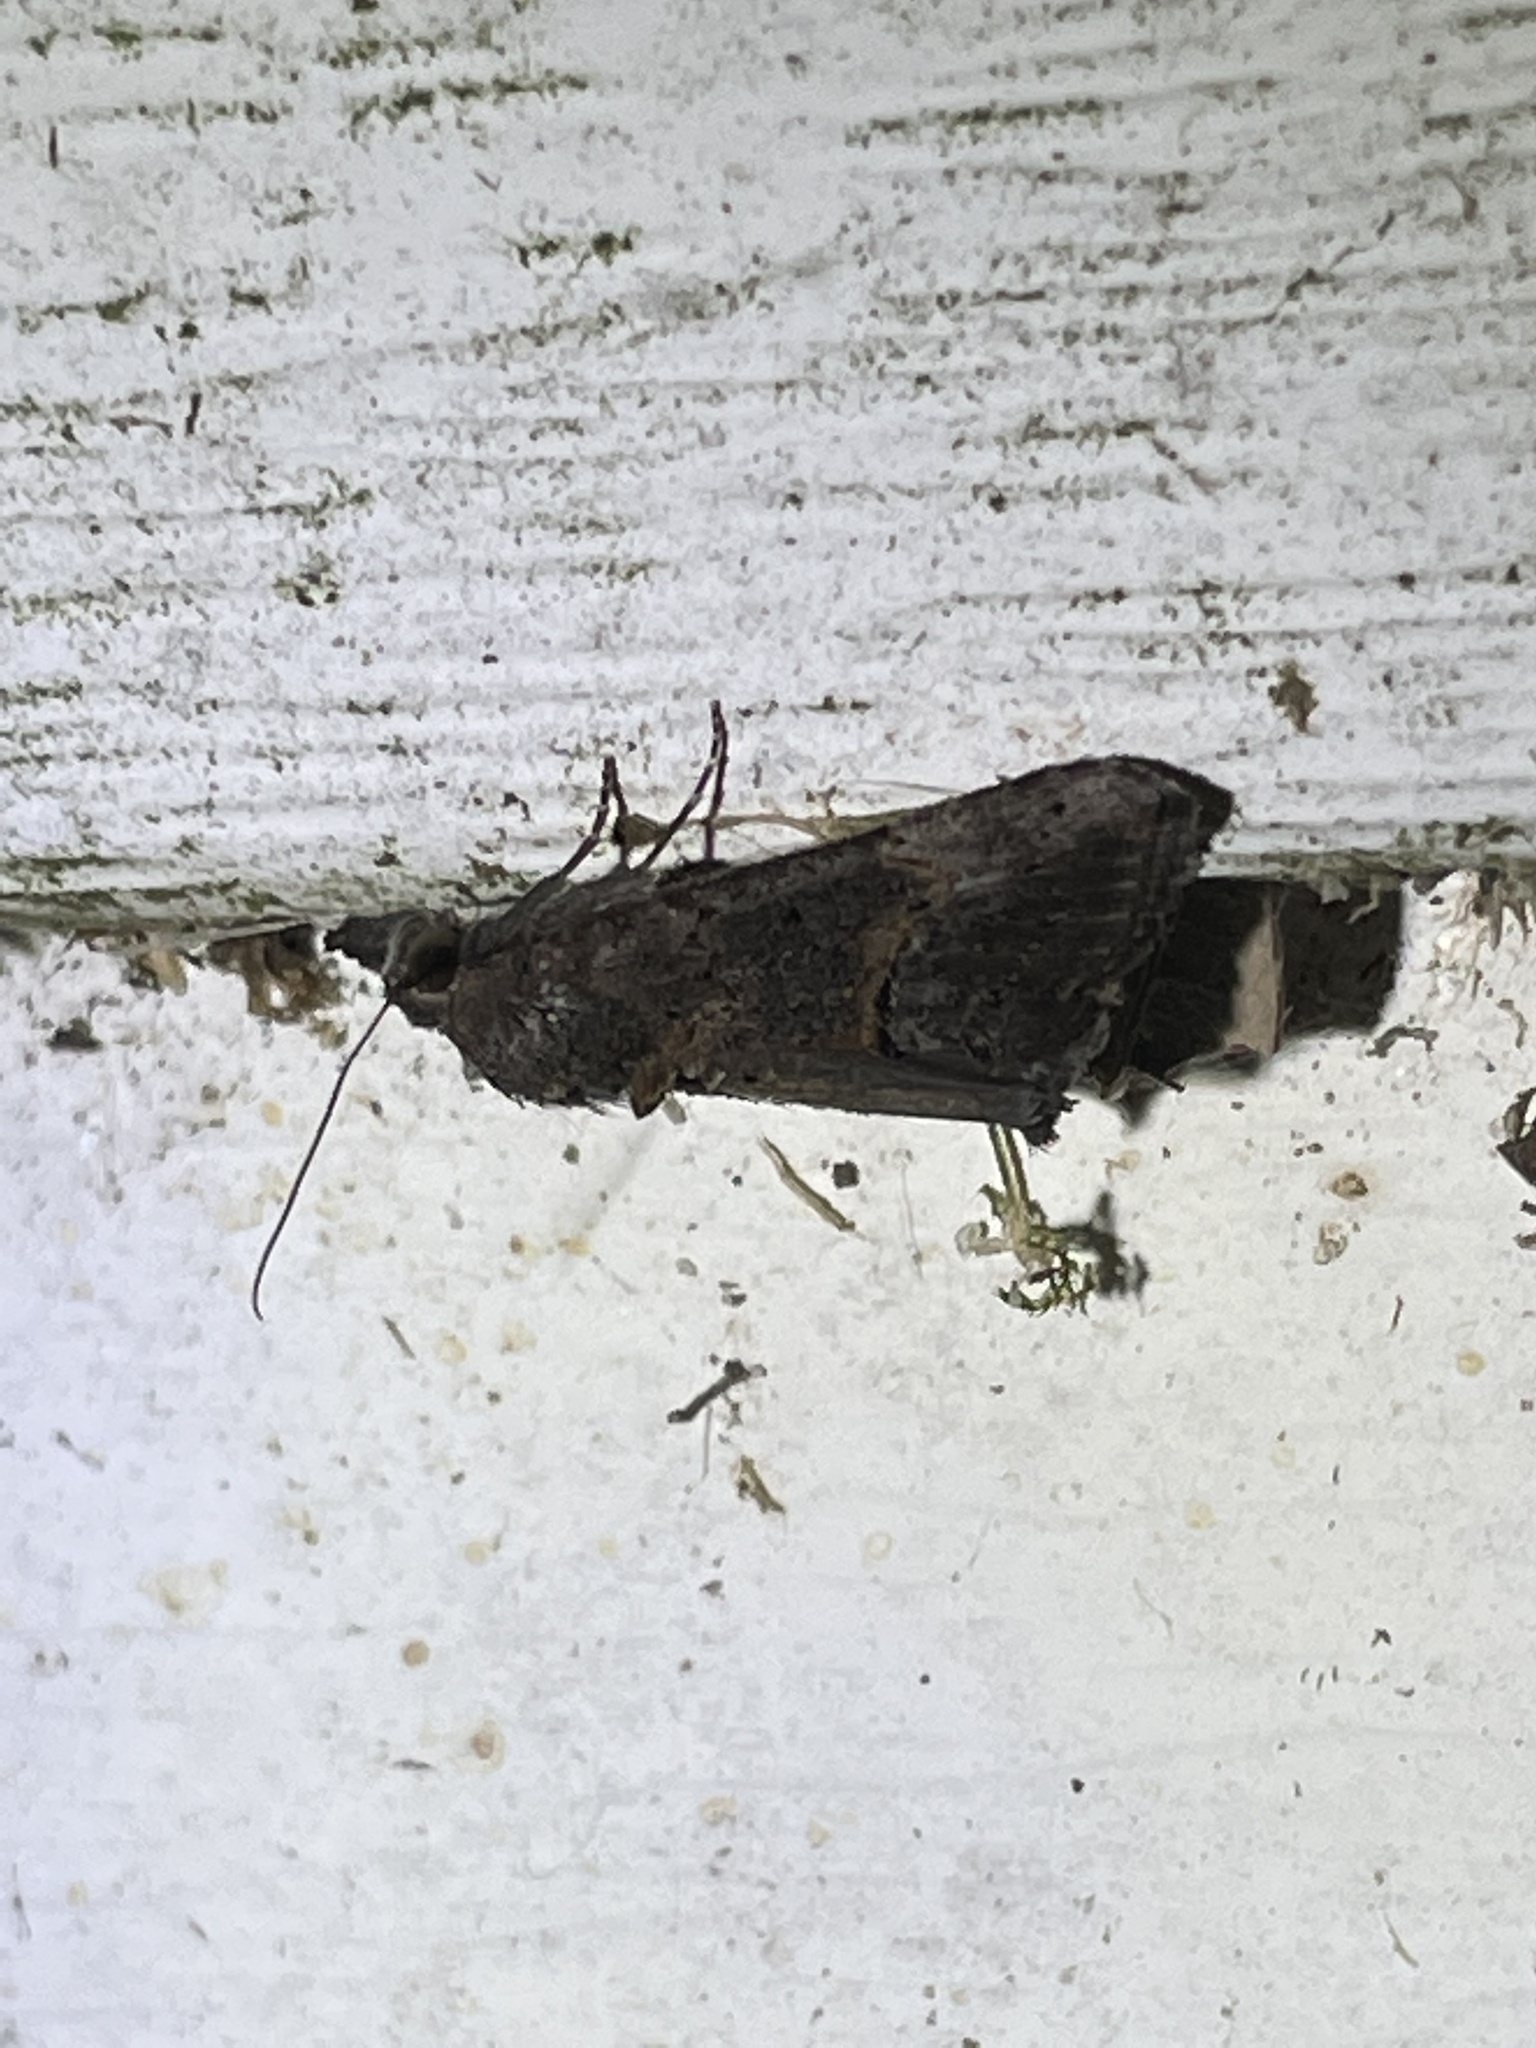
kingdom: Animalia
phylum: Arthropoda
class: Insecta
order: Lepidoptera
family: Erebidae
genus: Hypena
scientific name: Hypena scabra
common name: Green cloverworm
